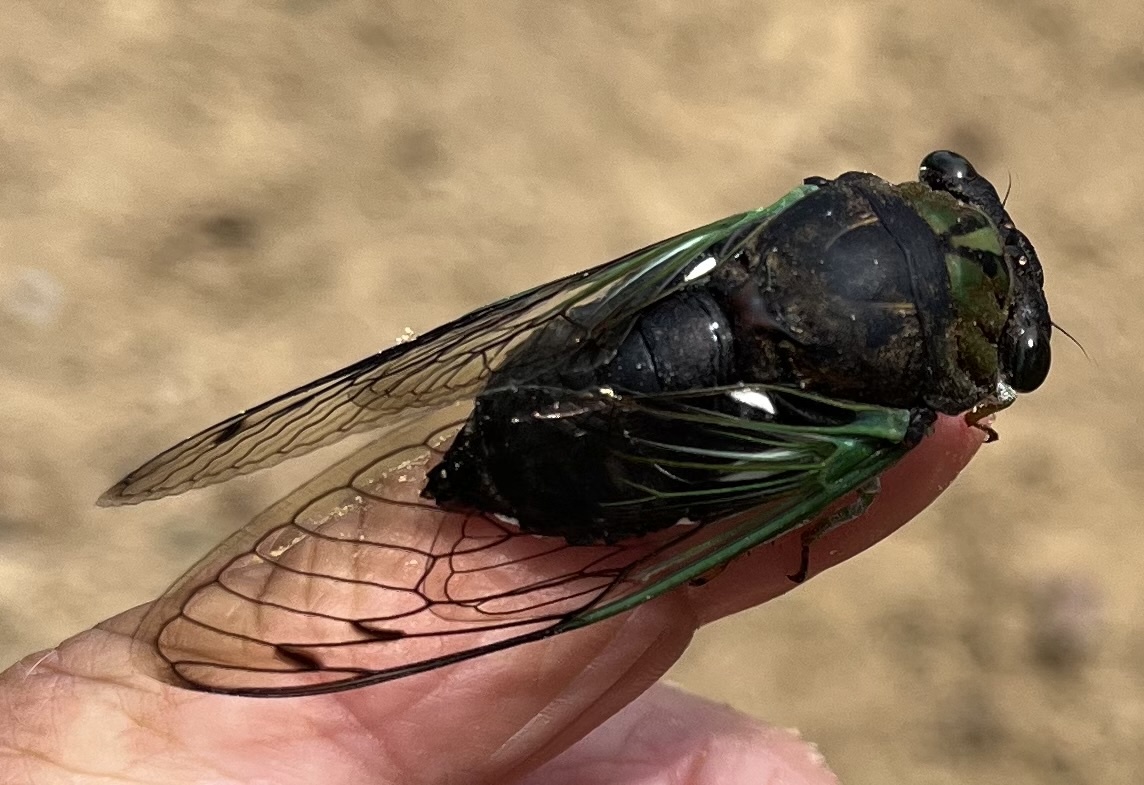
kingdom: Animalia
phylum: Arthropoda
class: Insecta
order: Hemiptera
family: Cicadidae
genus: Neotibicen
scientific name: Neotibicen tibicen
